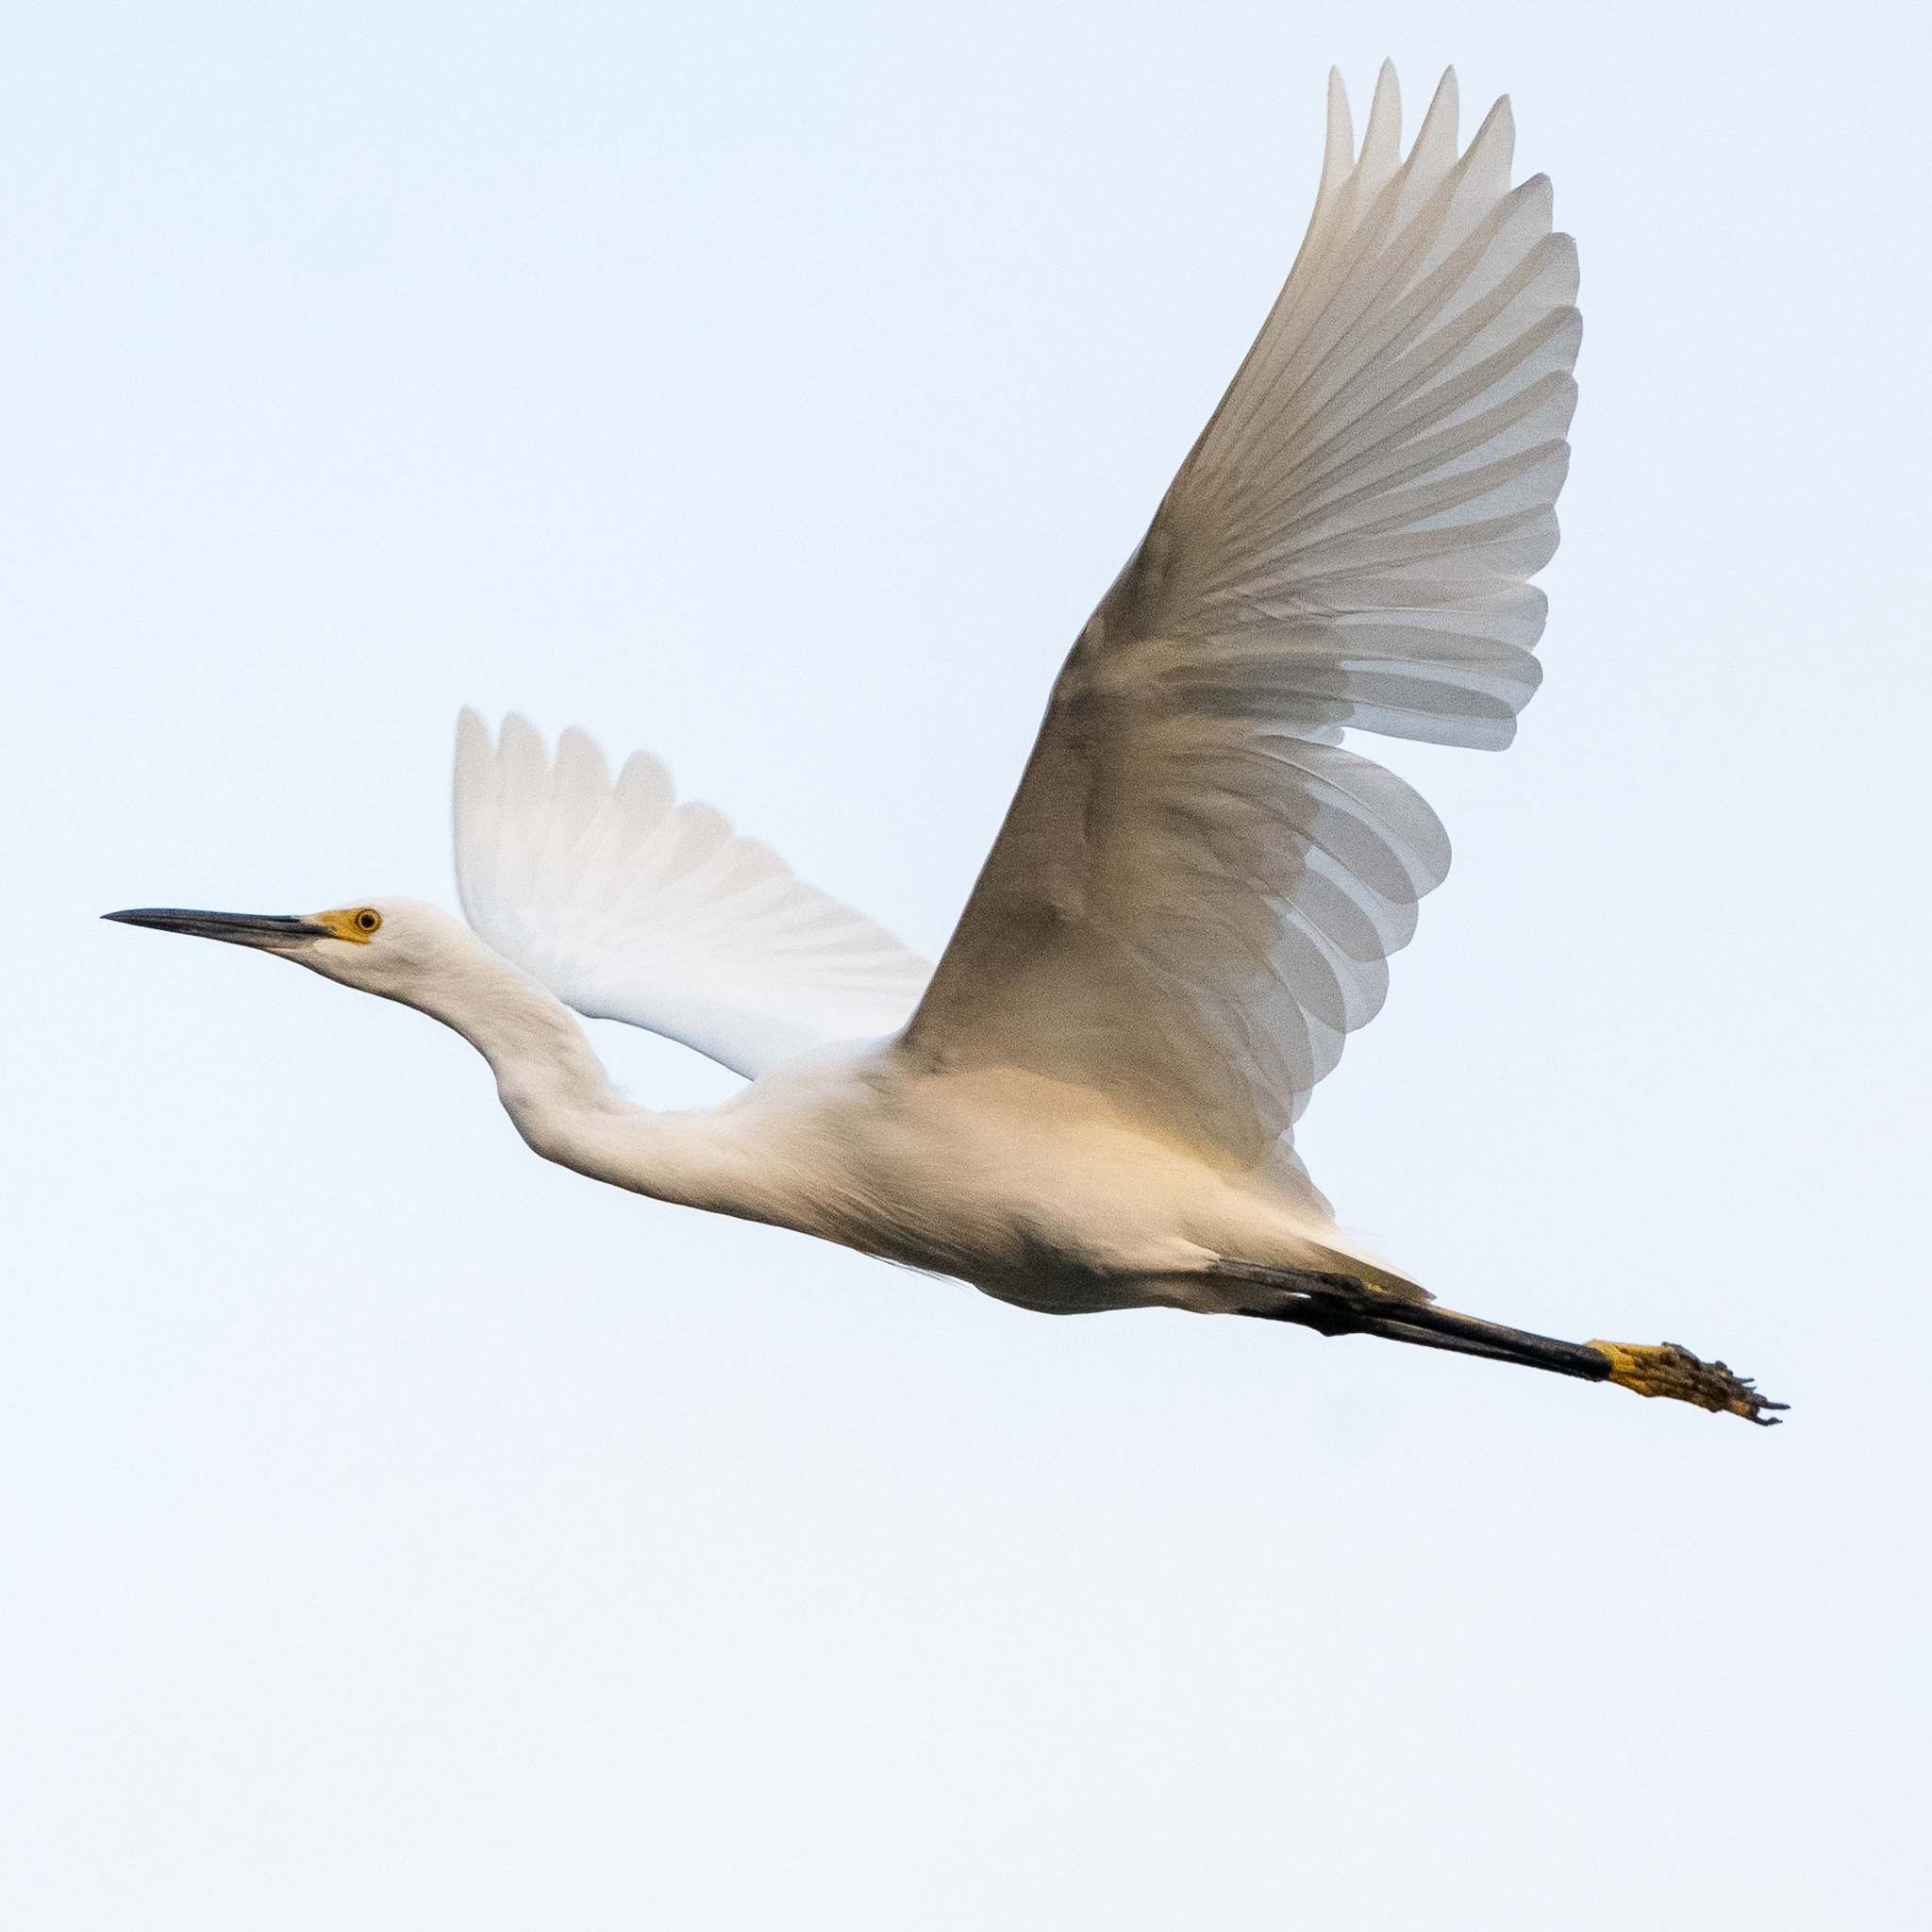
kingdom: Animalia
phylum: Chordata
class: Aves
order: Pelecaniformes
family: Ardeidae
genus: Egretta
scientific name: Egretta thula
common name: Snowy egret
